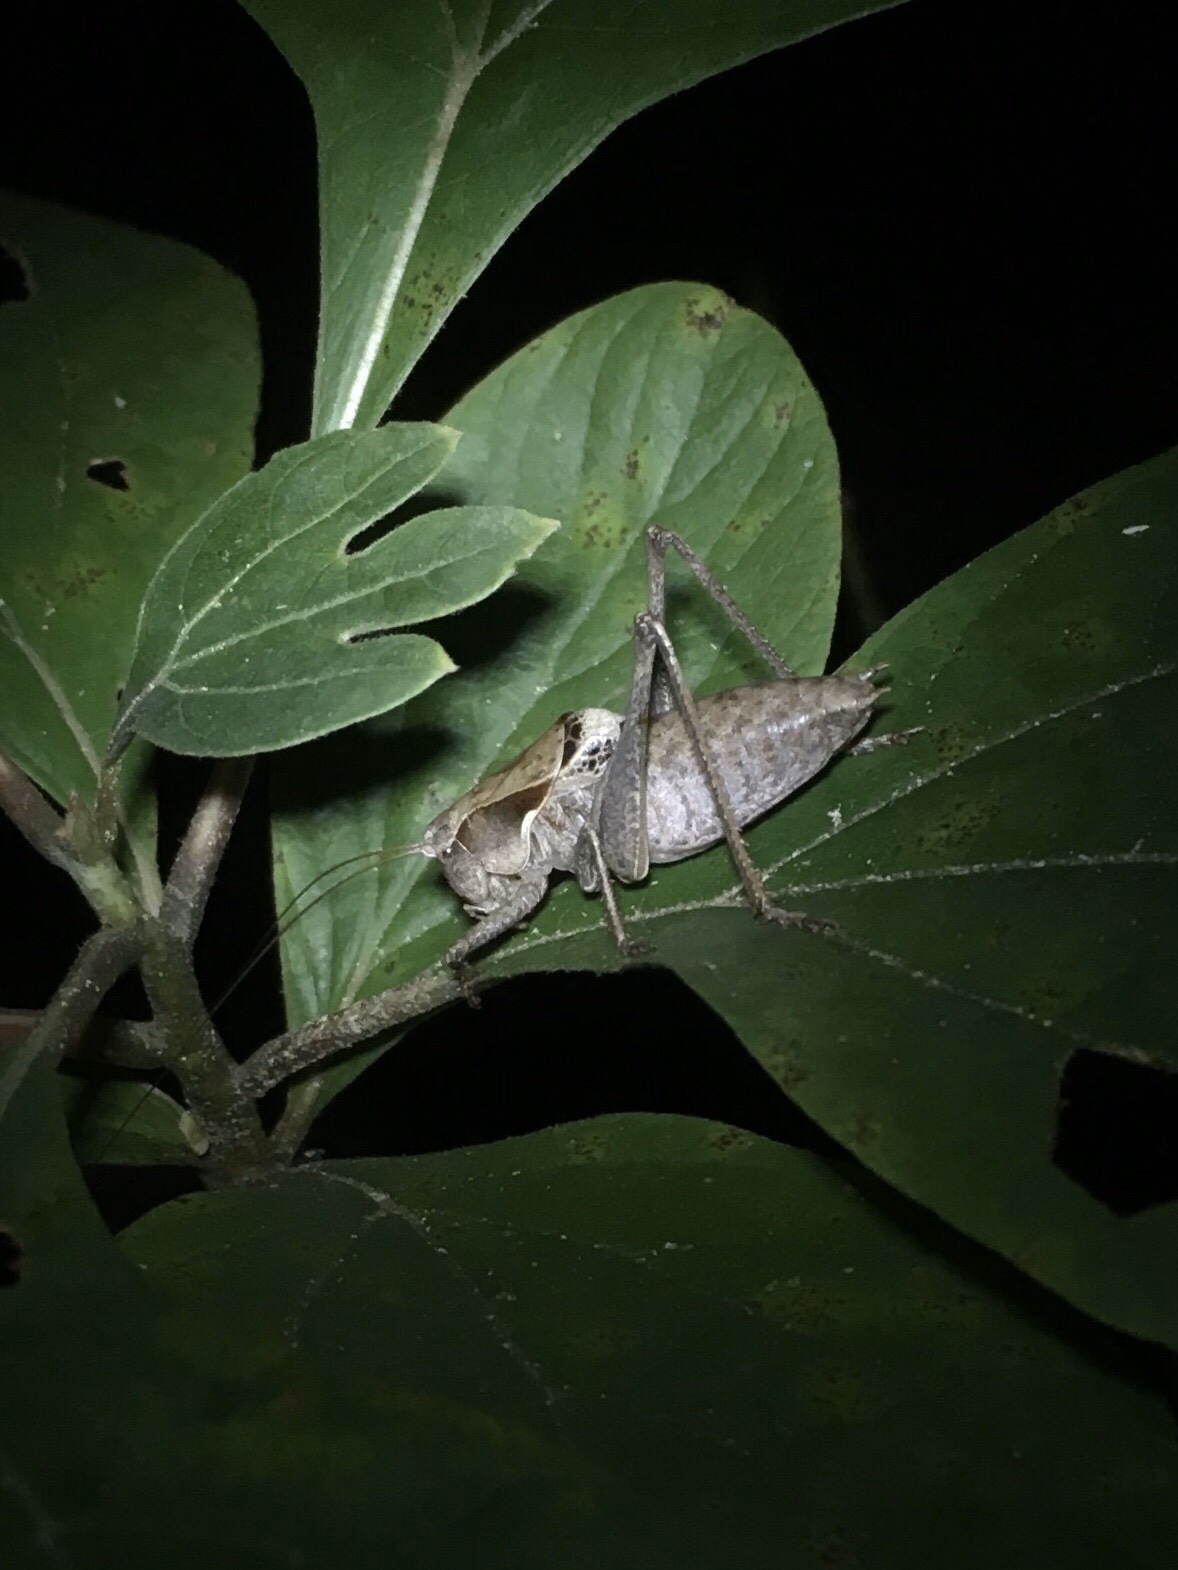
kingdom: Animalia
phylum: Arthropoda
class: Insecta
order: Orthoptera
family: Tettigoniidae
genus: Atlanticus
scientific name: Atlanticus davisi
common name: Davis's shield-bearer
